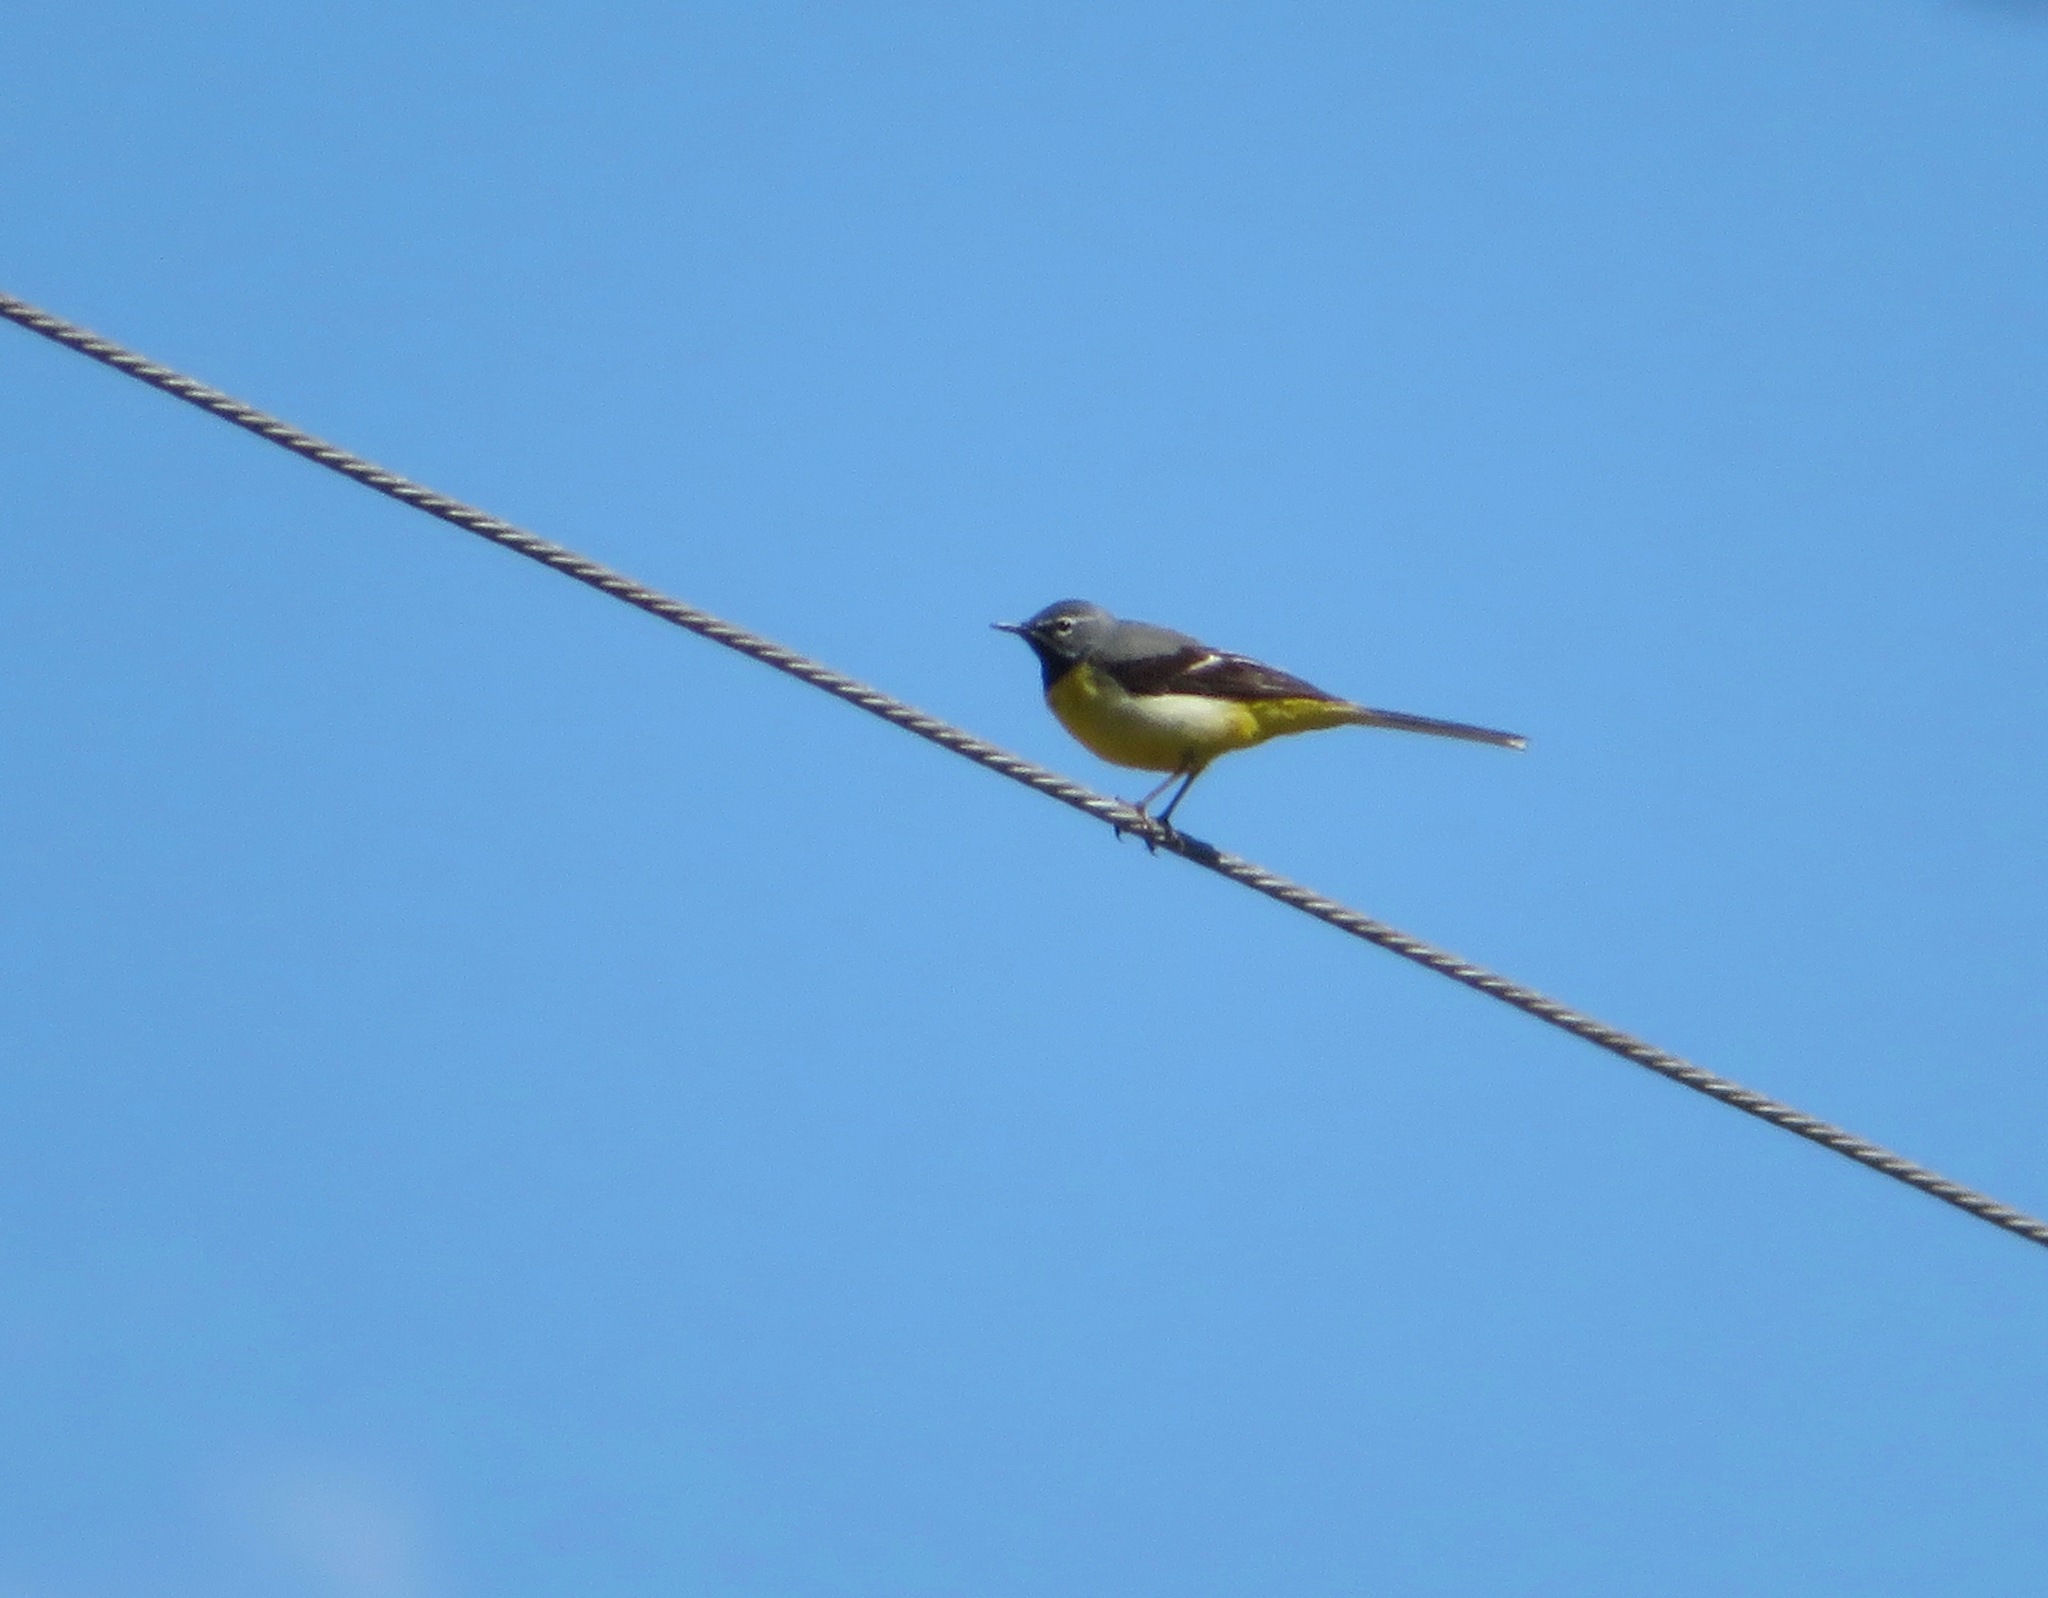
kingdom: Animalia
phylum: Chordata
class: Aves
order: Passeriformes
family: Motacillidae
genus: Motacilla
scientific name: Motacilla cinerea
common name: Grey wagtail
